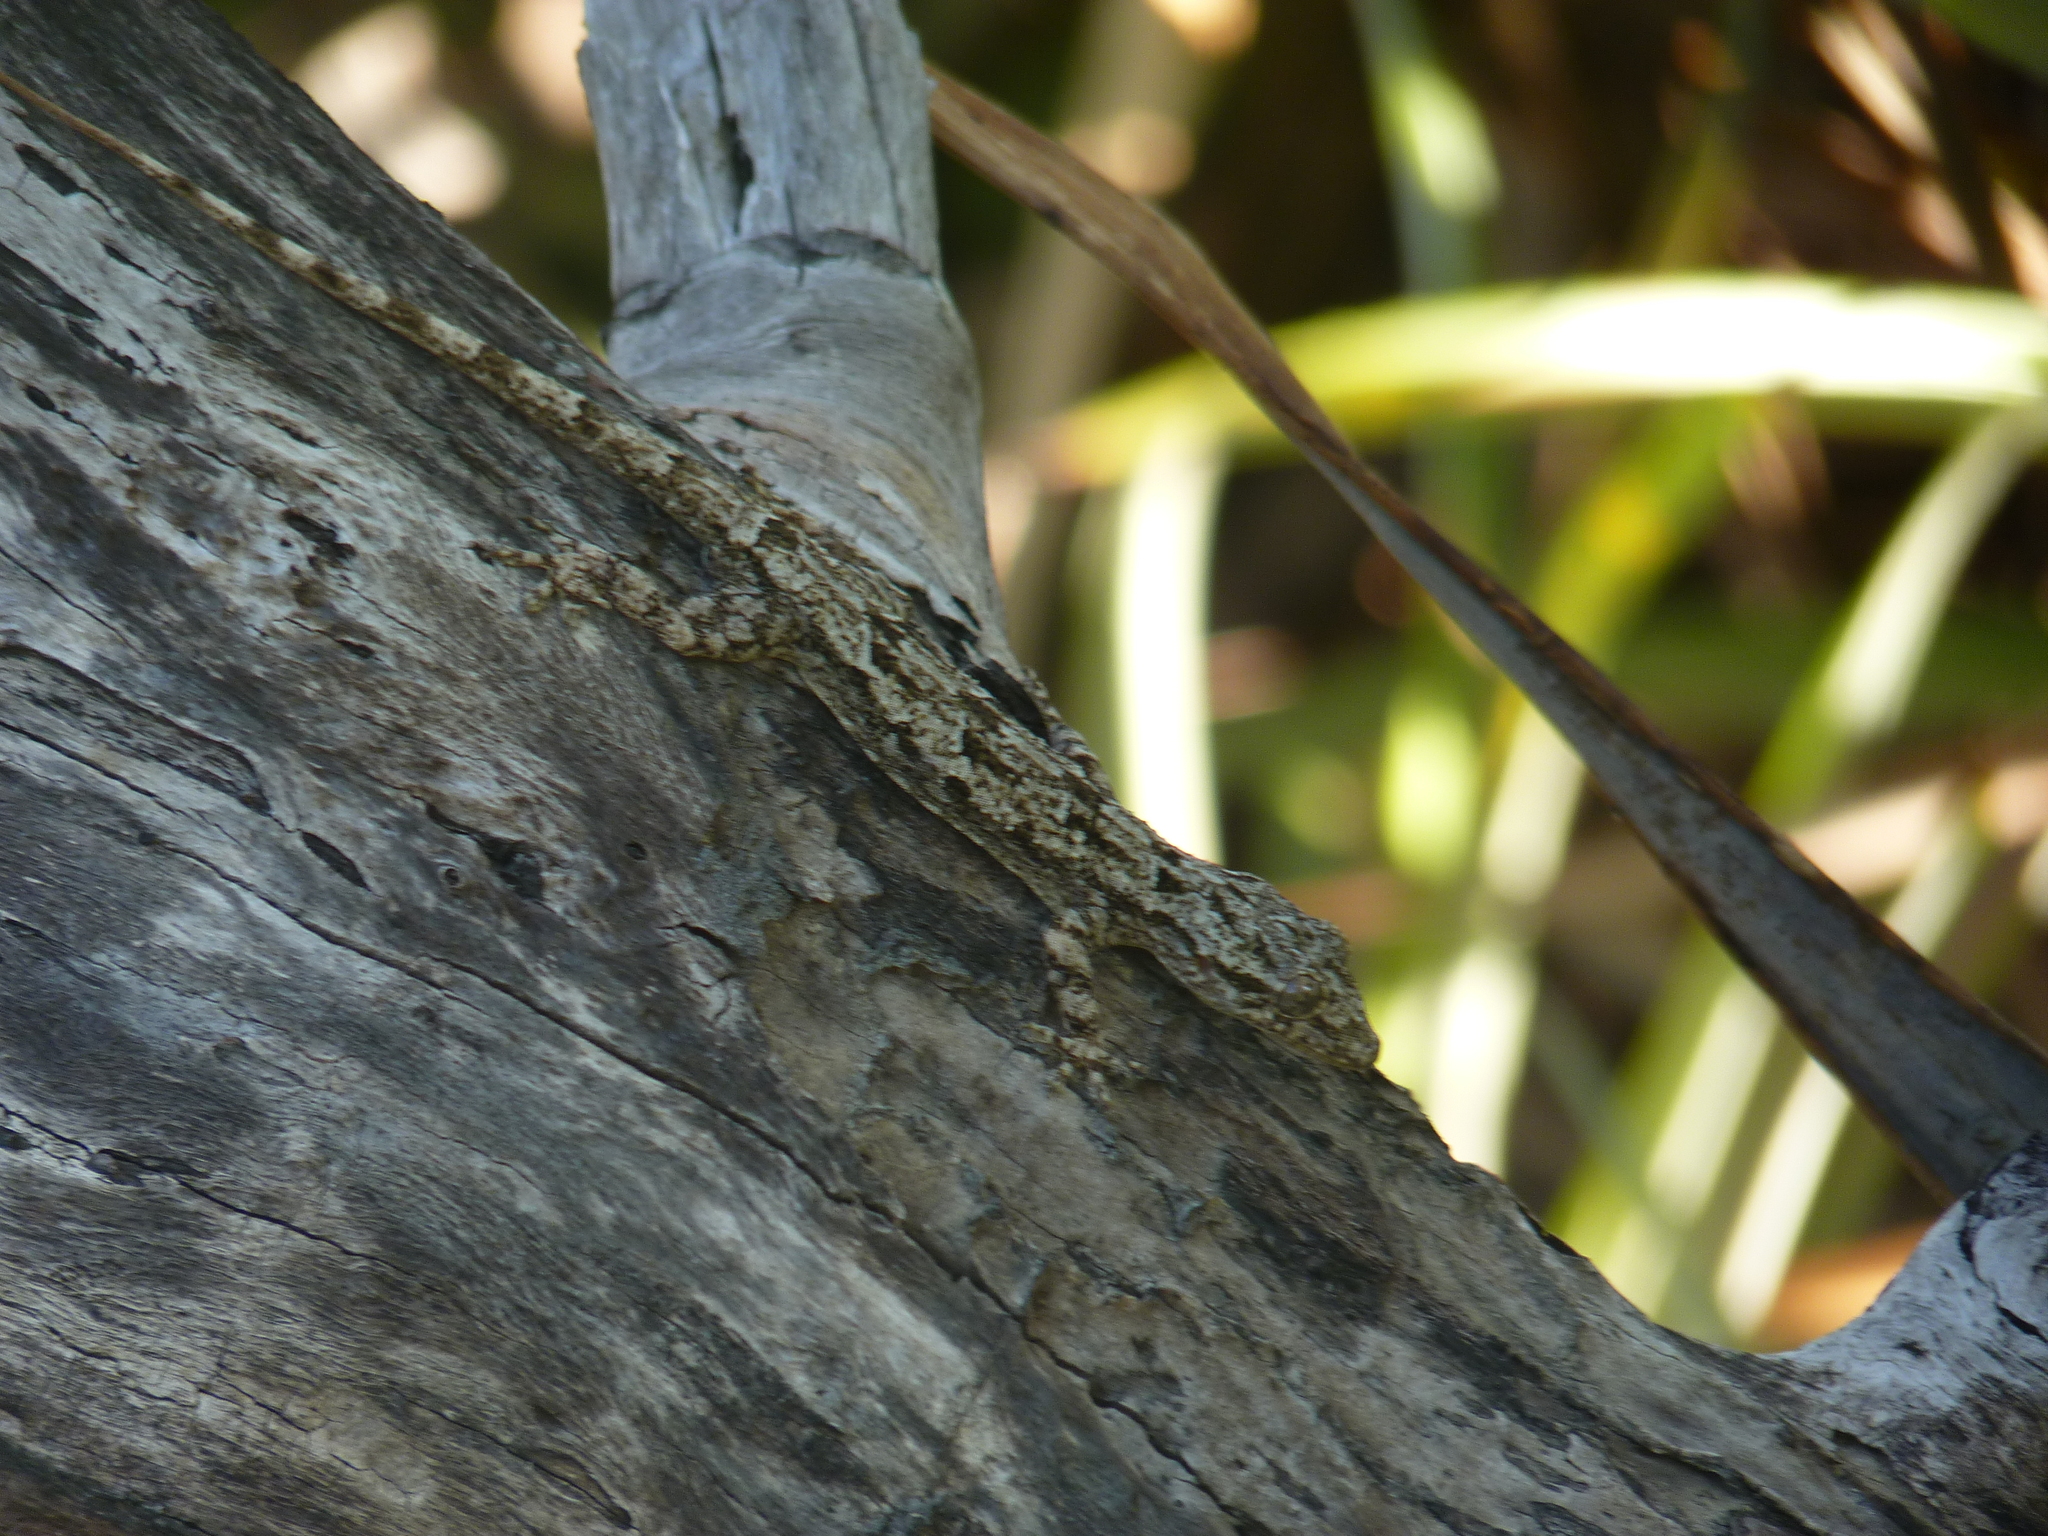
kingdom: Animalia
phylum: Chordata
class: Squamata
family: Gekkonidae
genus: Hemidactylus
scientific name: Hemidactylus mercatorius
